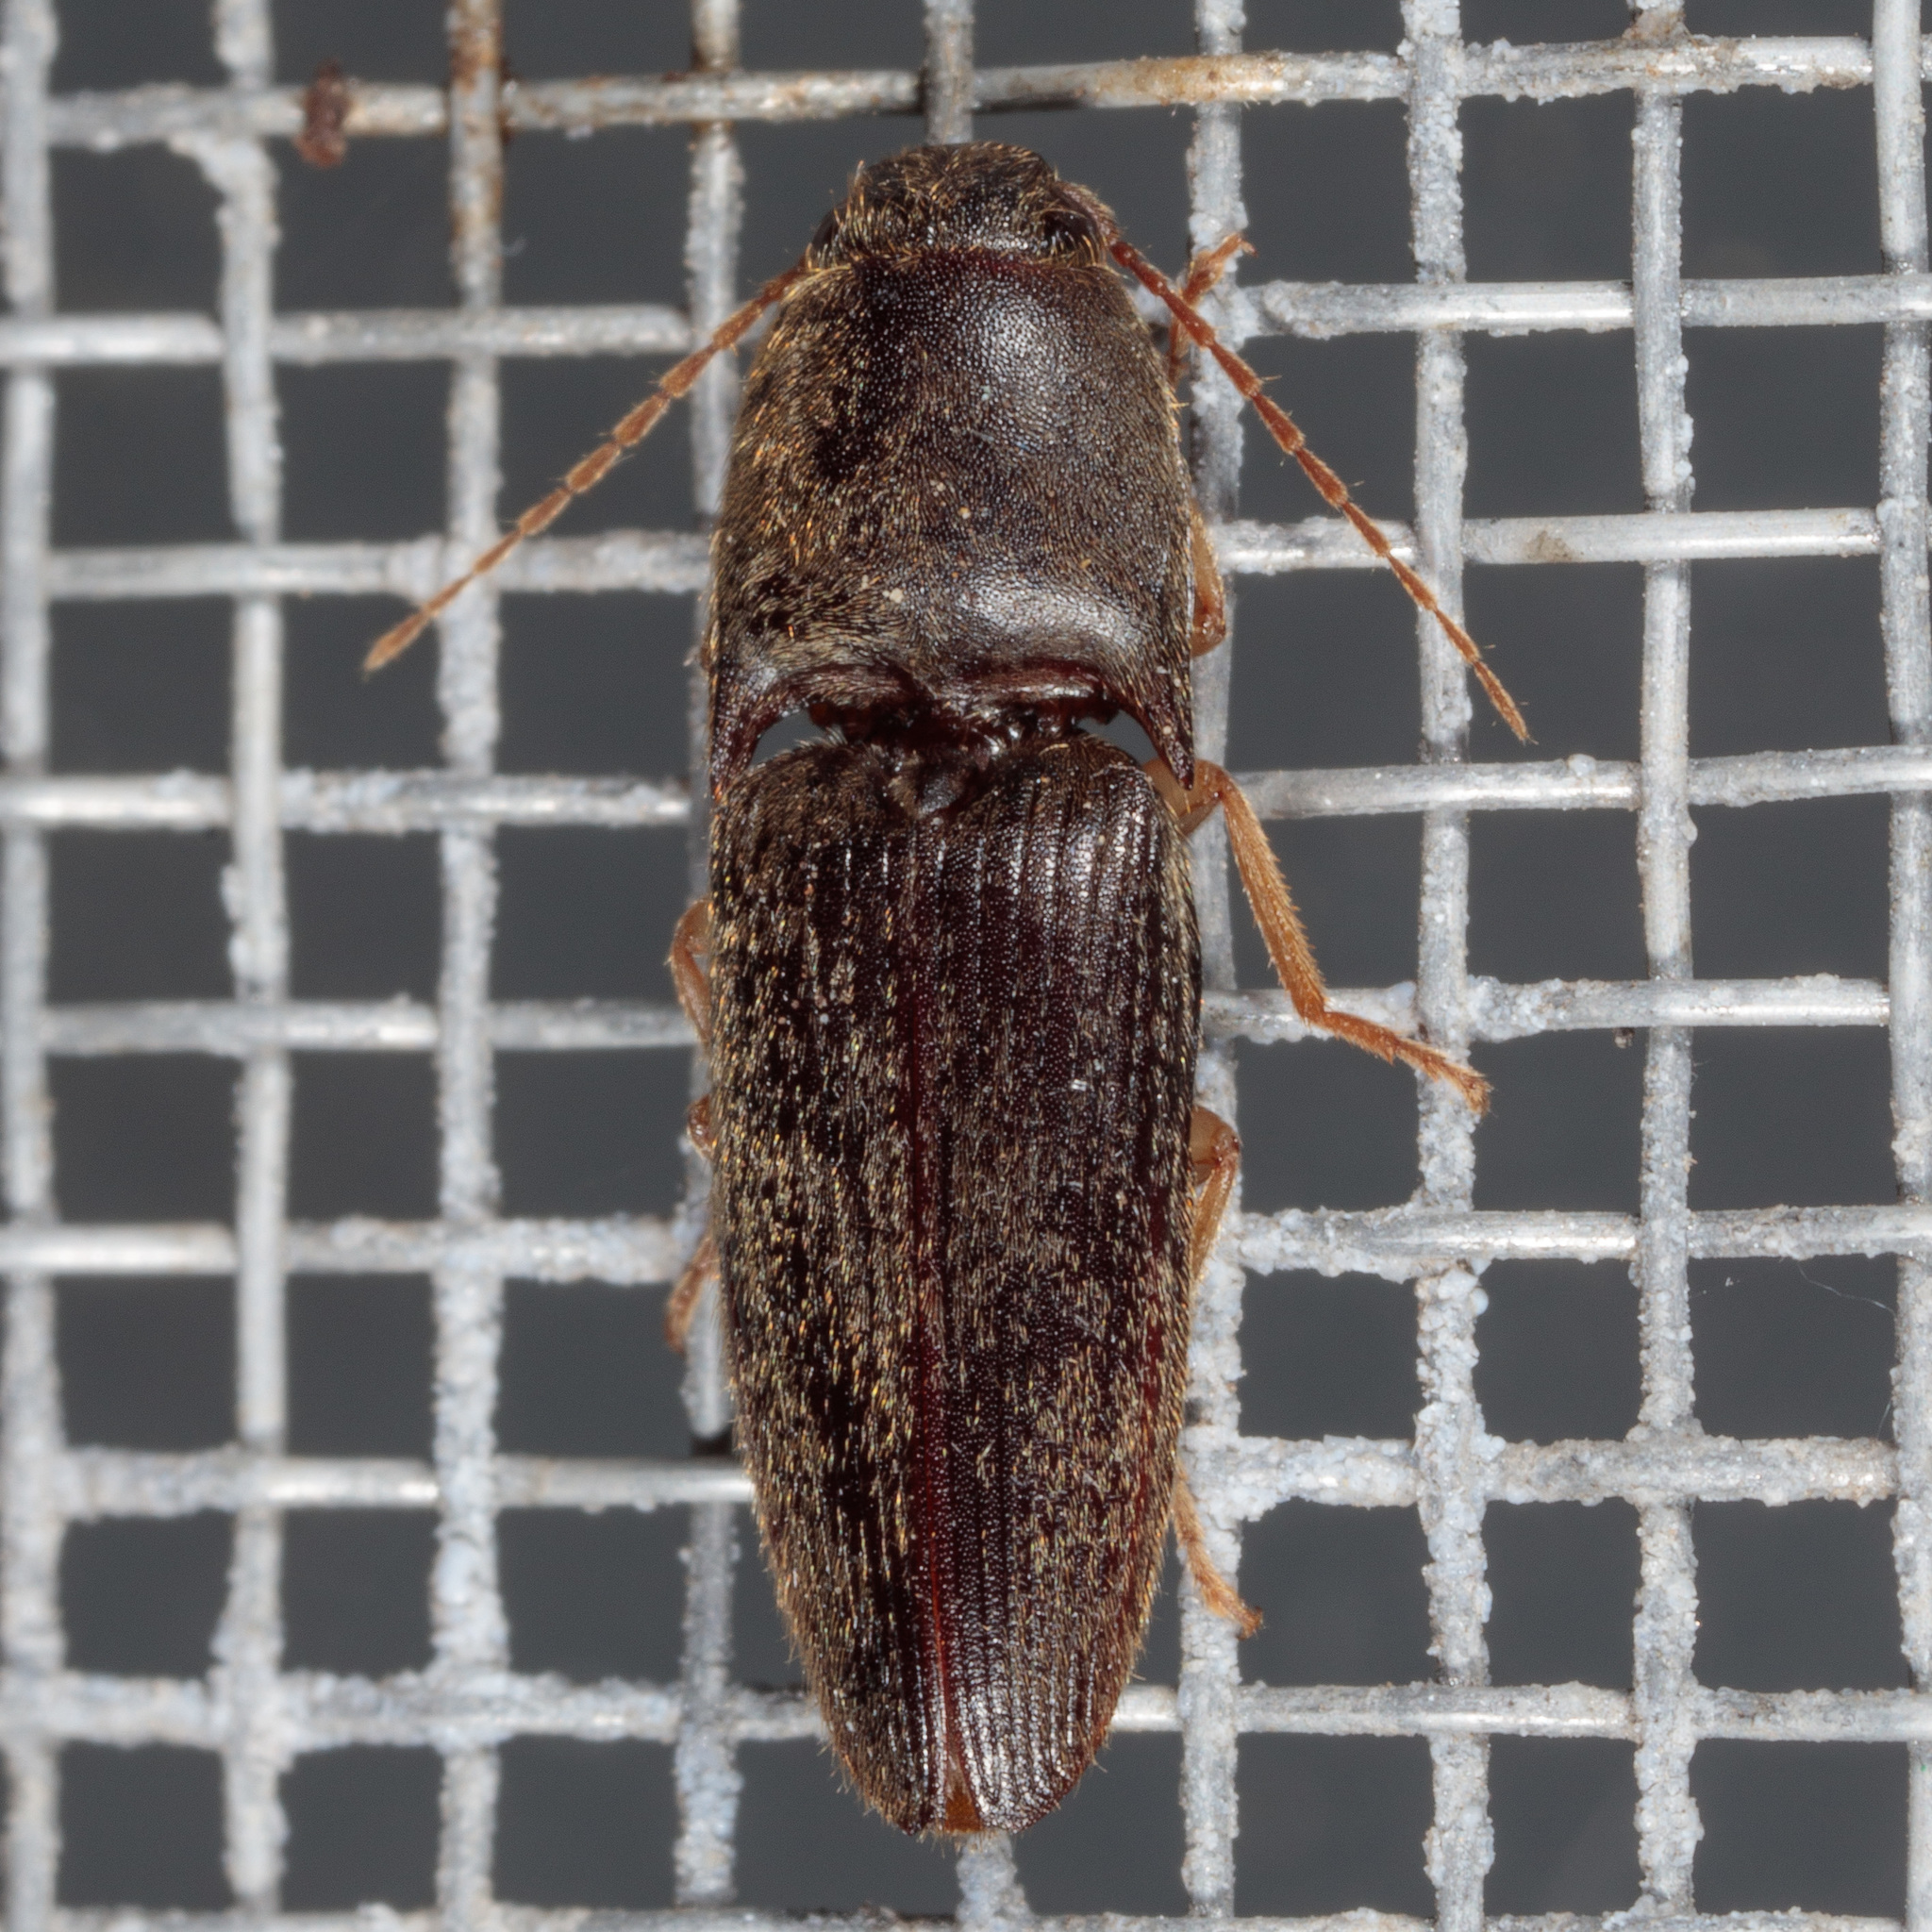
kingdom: Animalia
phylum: Arthropoda
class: Insecta
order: Coleoptera
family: Elateridae
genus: Conoderus
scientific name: Conoderus exsul
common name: Click beetle
